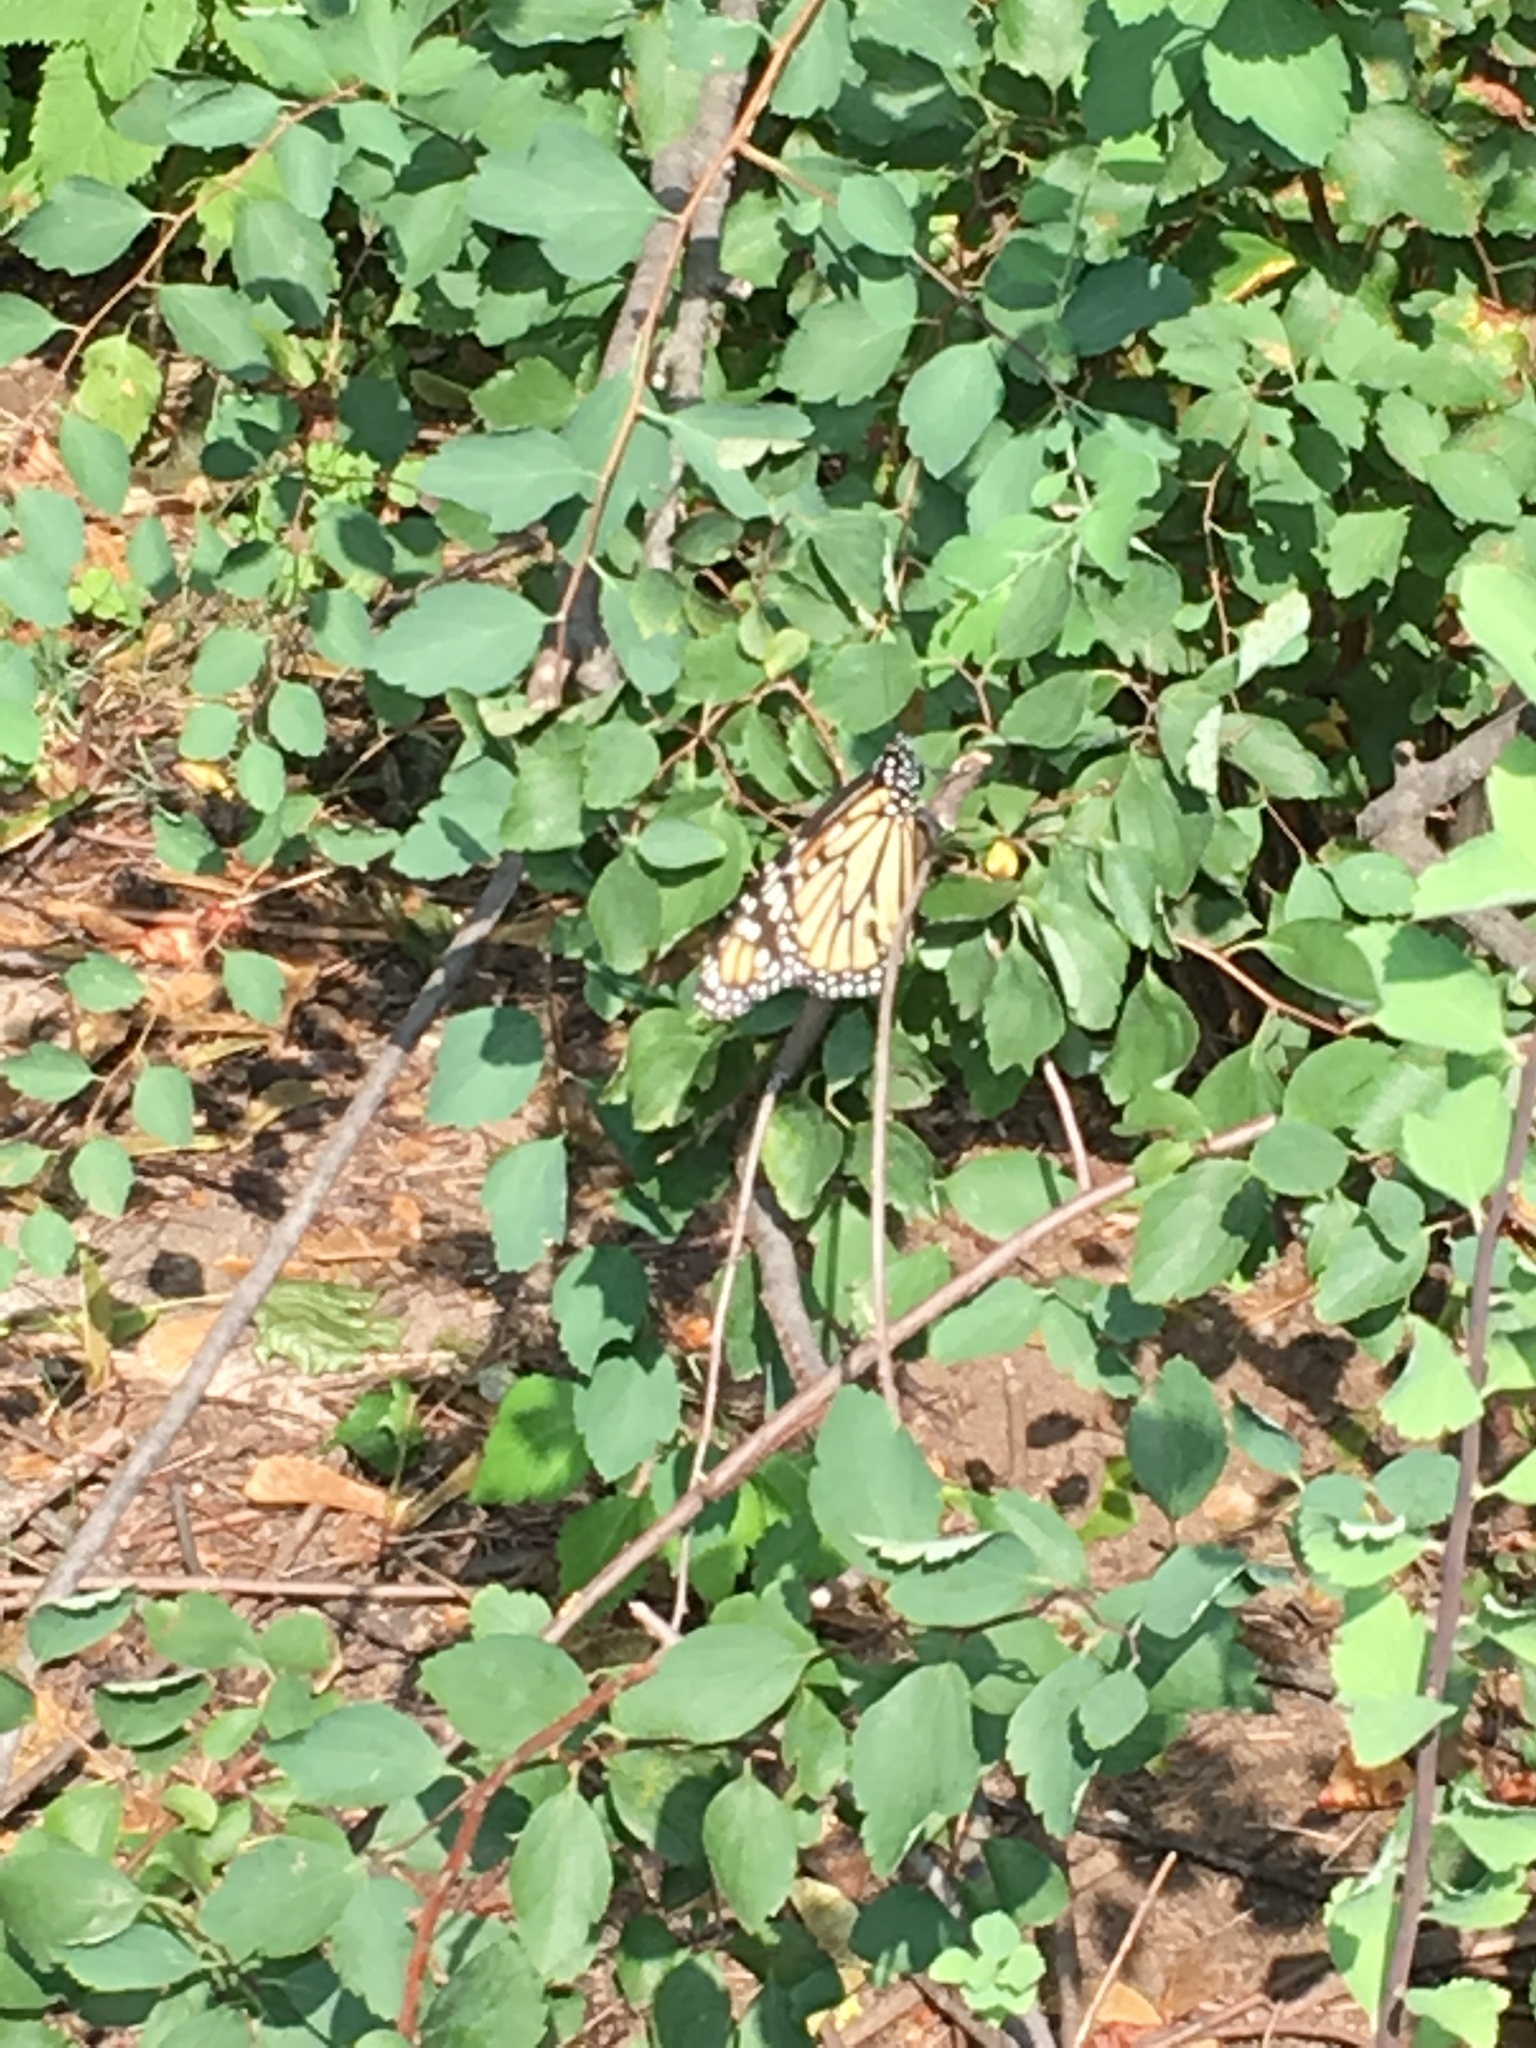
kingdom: Animalia
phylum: Arthropoda
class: Insecta
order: Lepidoptera
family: Nymphalidae
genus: Danaus
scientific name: Danaus plexippus
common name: Monarch
